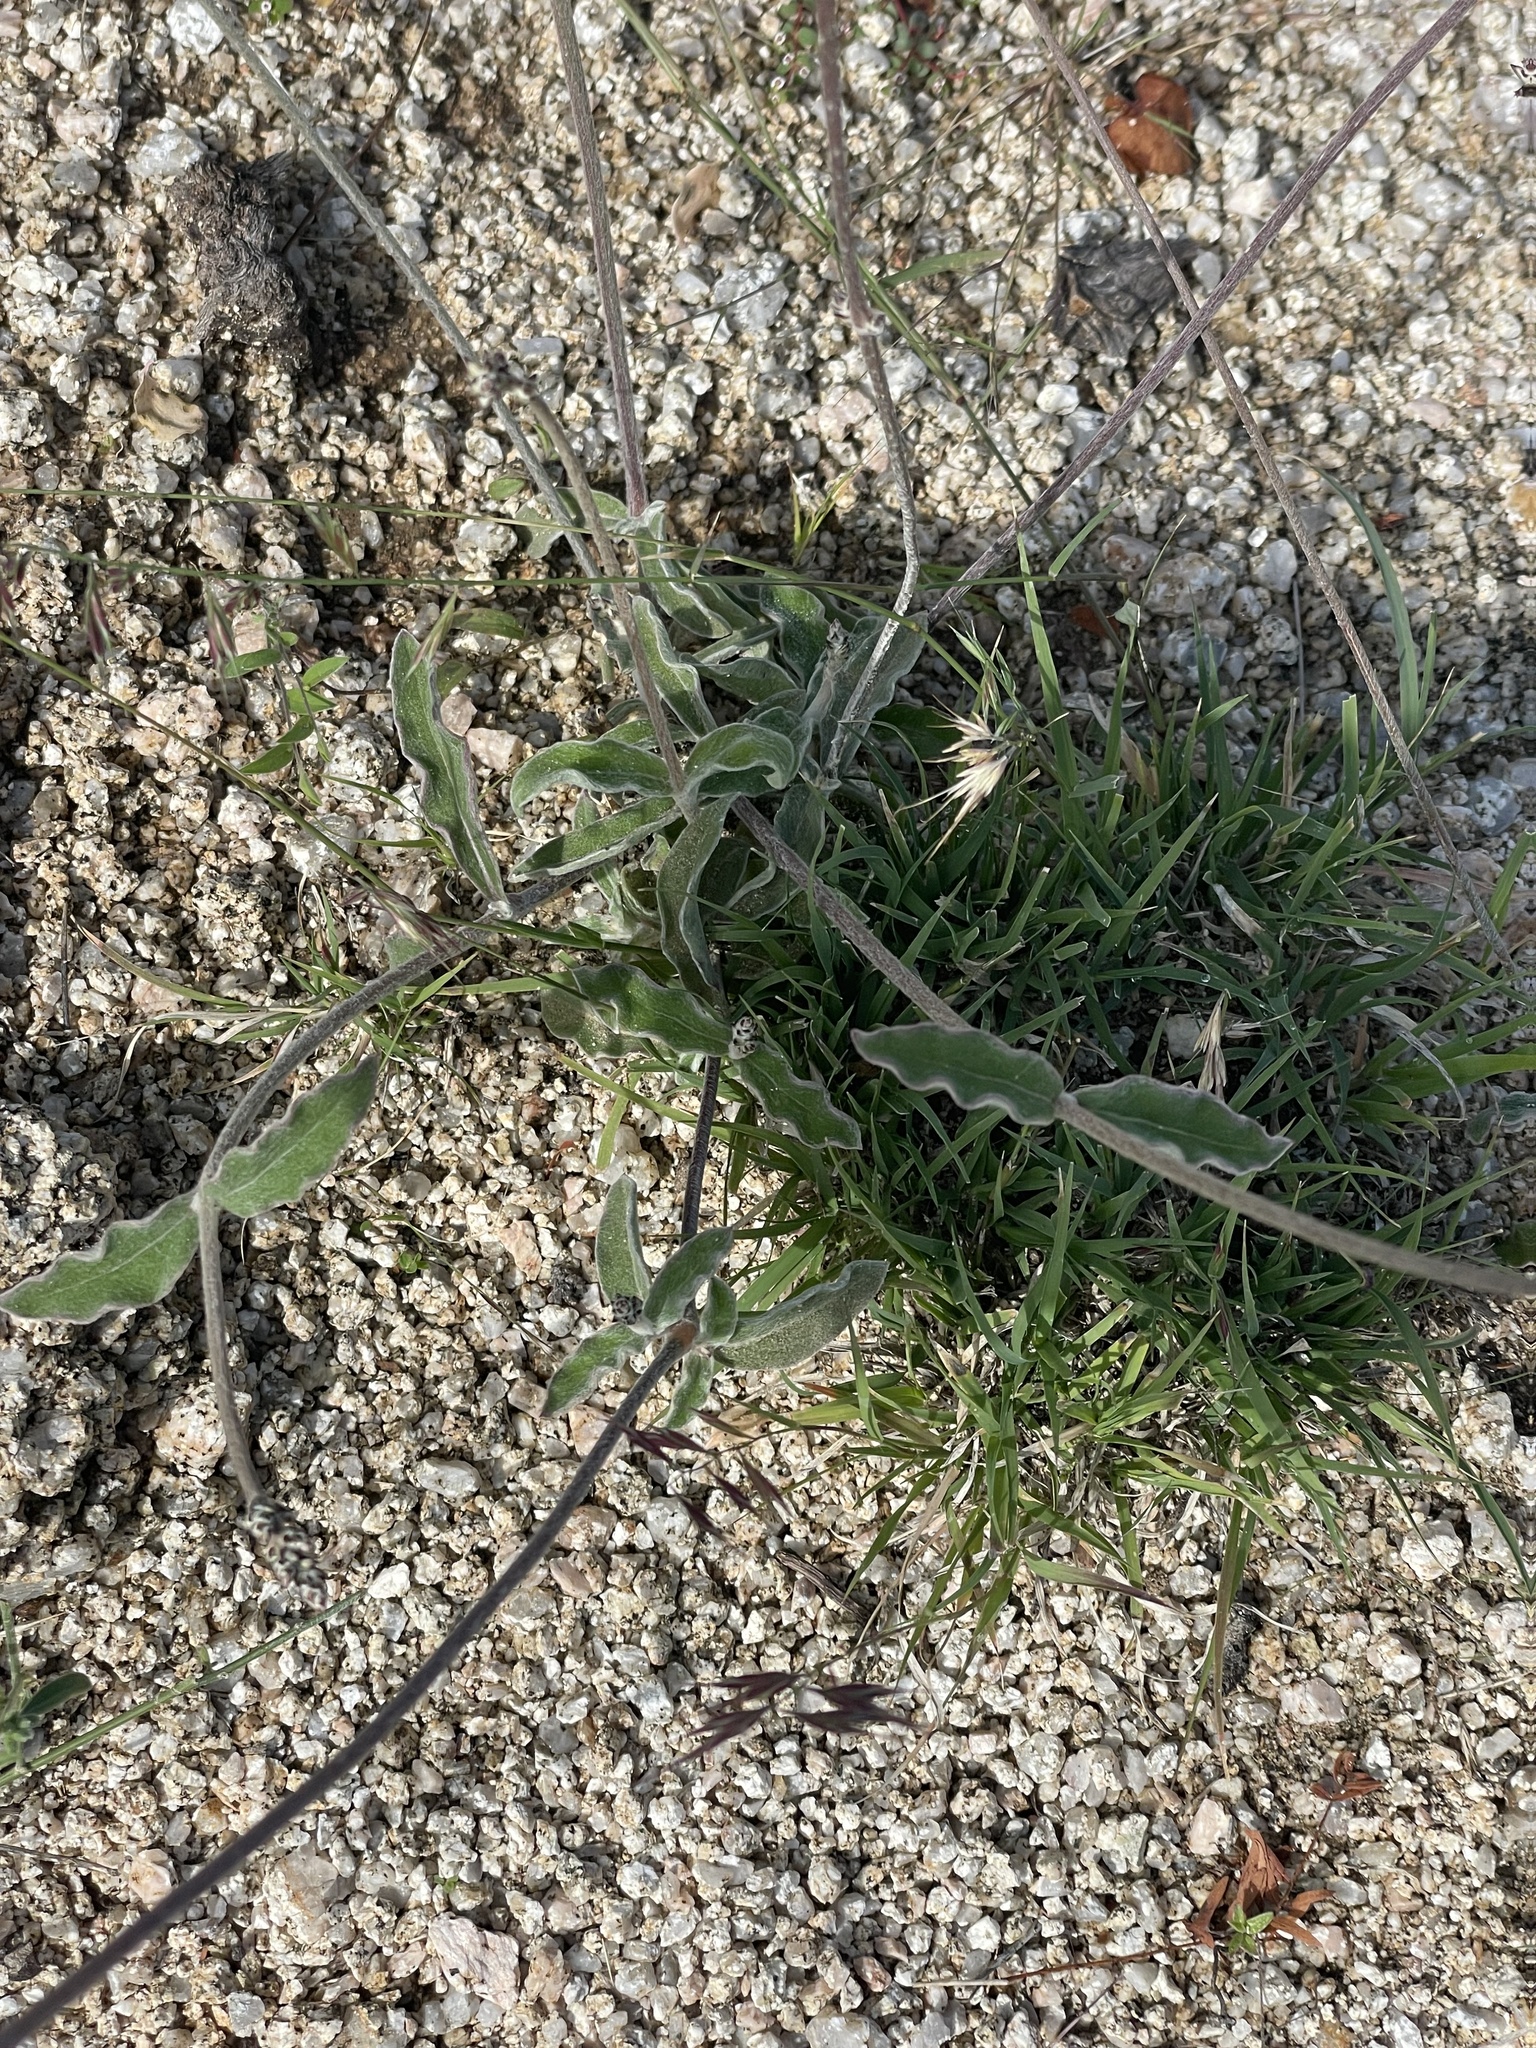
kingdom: Plantae
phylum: Tracheophyta
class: Magnoliopsida
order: Caryophyllales
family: Amaranthaceae
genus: Froelichia
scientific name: Froelichia xantusii
